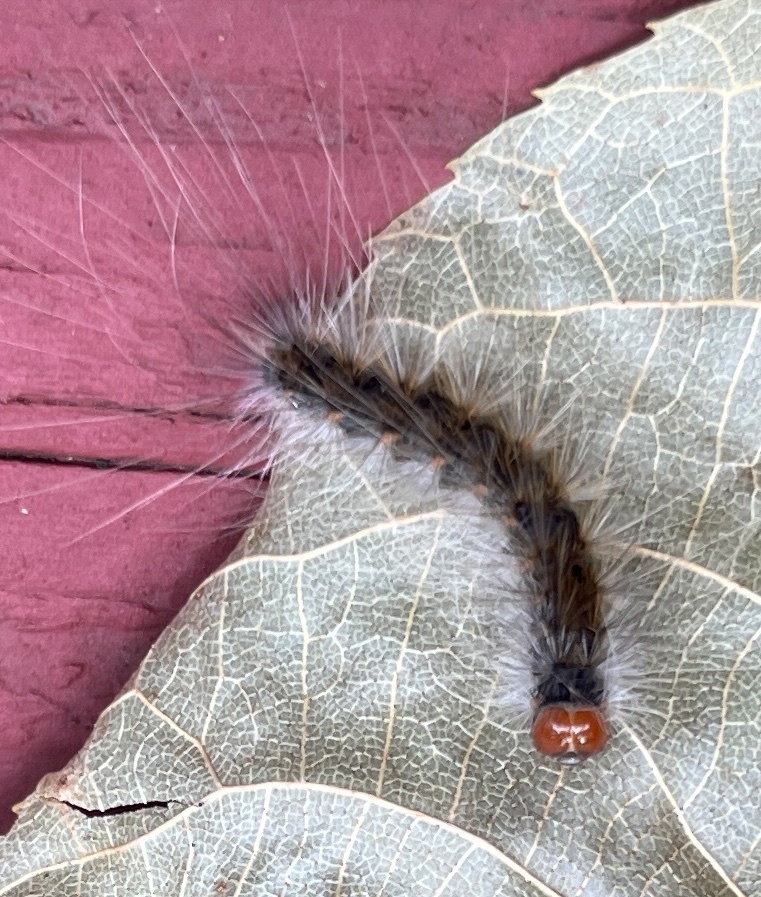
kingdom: Animalia
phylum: Arthropoda
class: Insecta
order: Lepidoptera
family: Erebidae
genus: Hyphantria
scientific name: Hyphantria cunea
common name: American white moth
